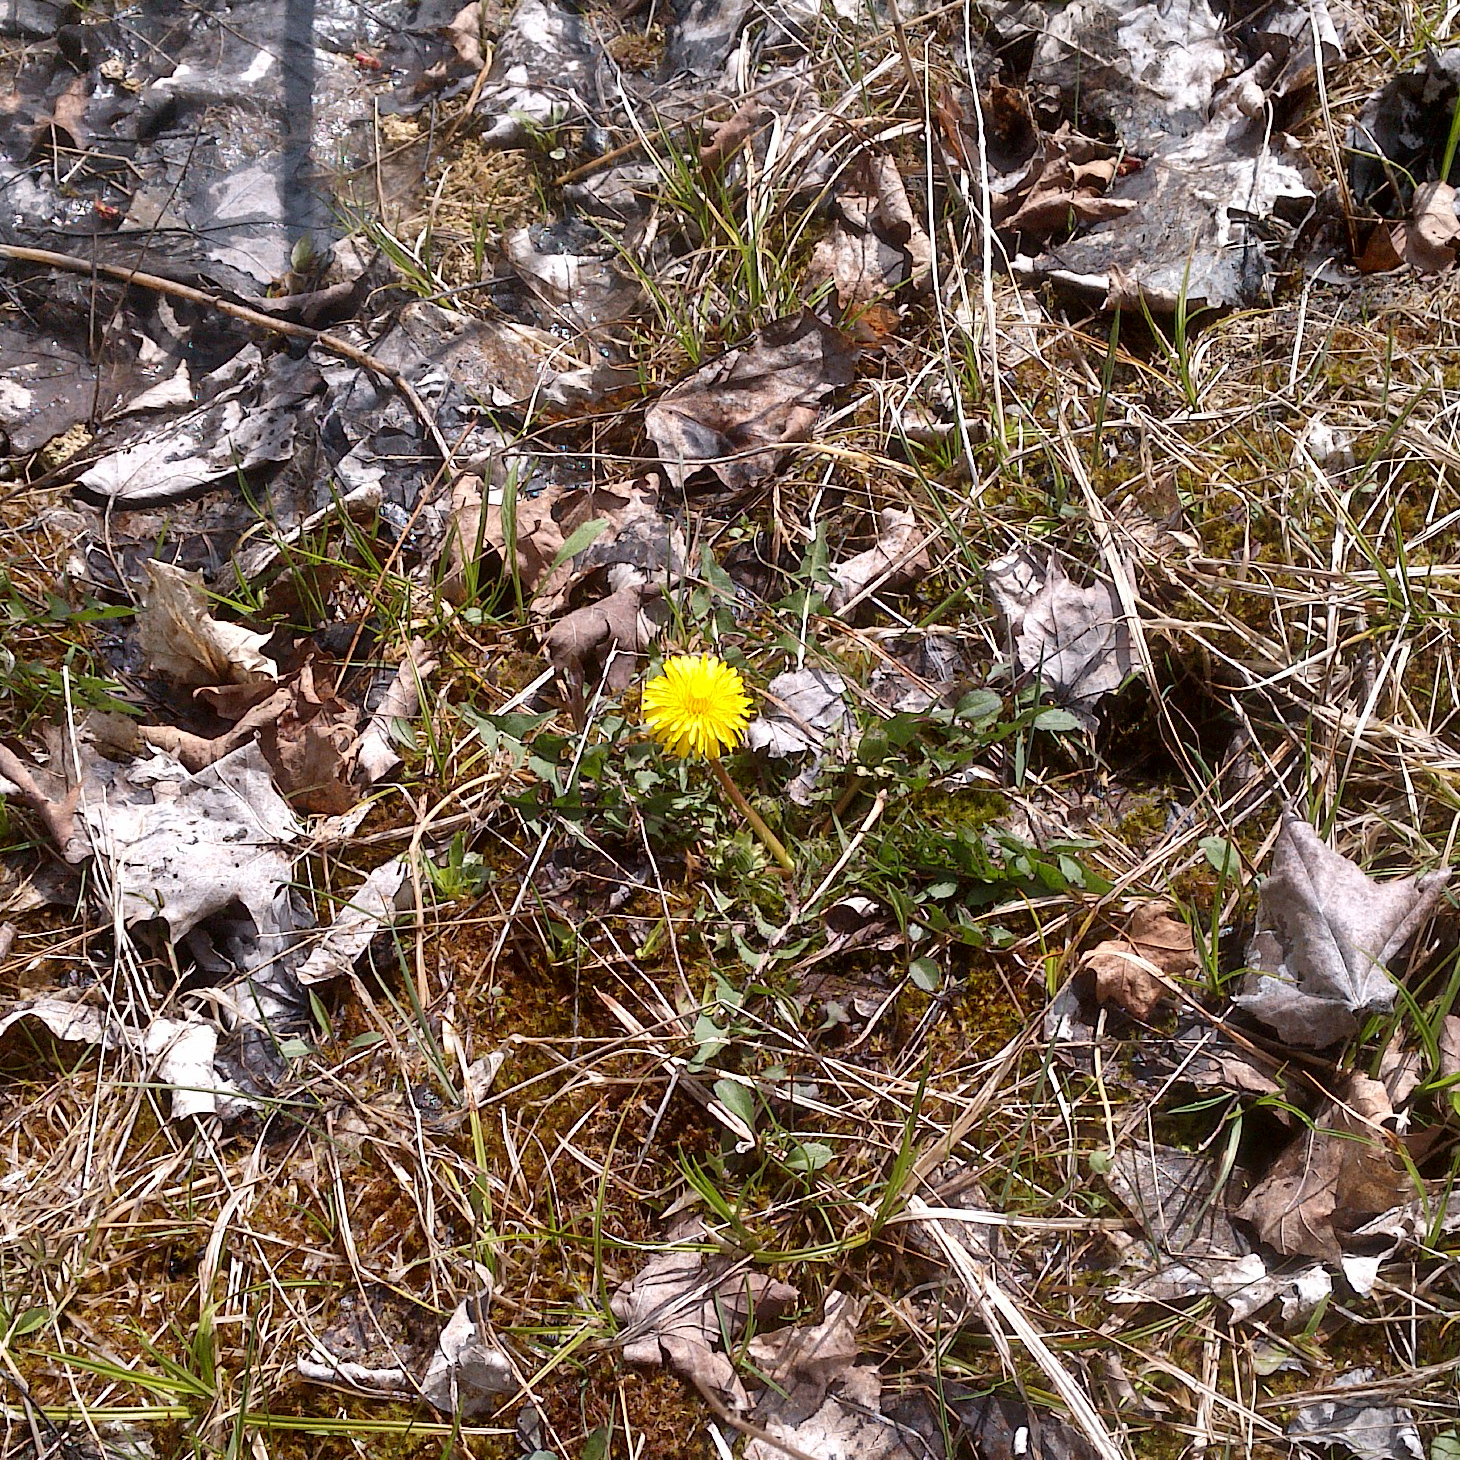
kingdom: Plantae
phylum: Tracheophyta
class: Magnoliopsida
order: Asterales
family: Asteraceae
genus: Taraxacum
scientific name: Taraxacum officinale
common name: Common dandelion
